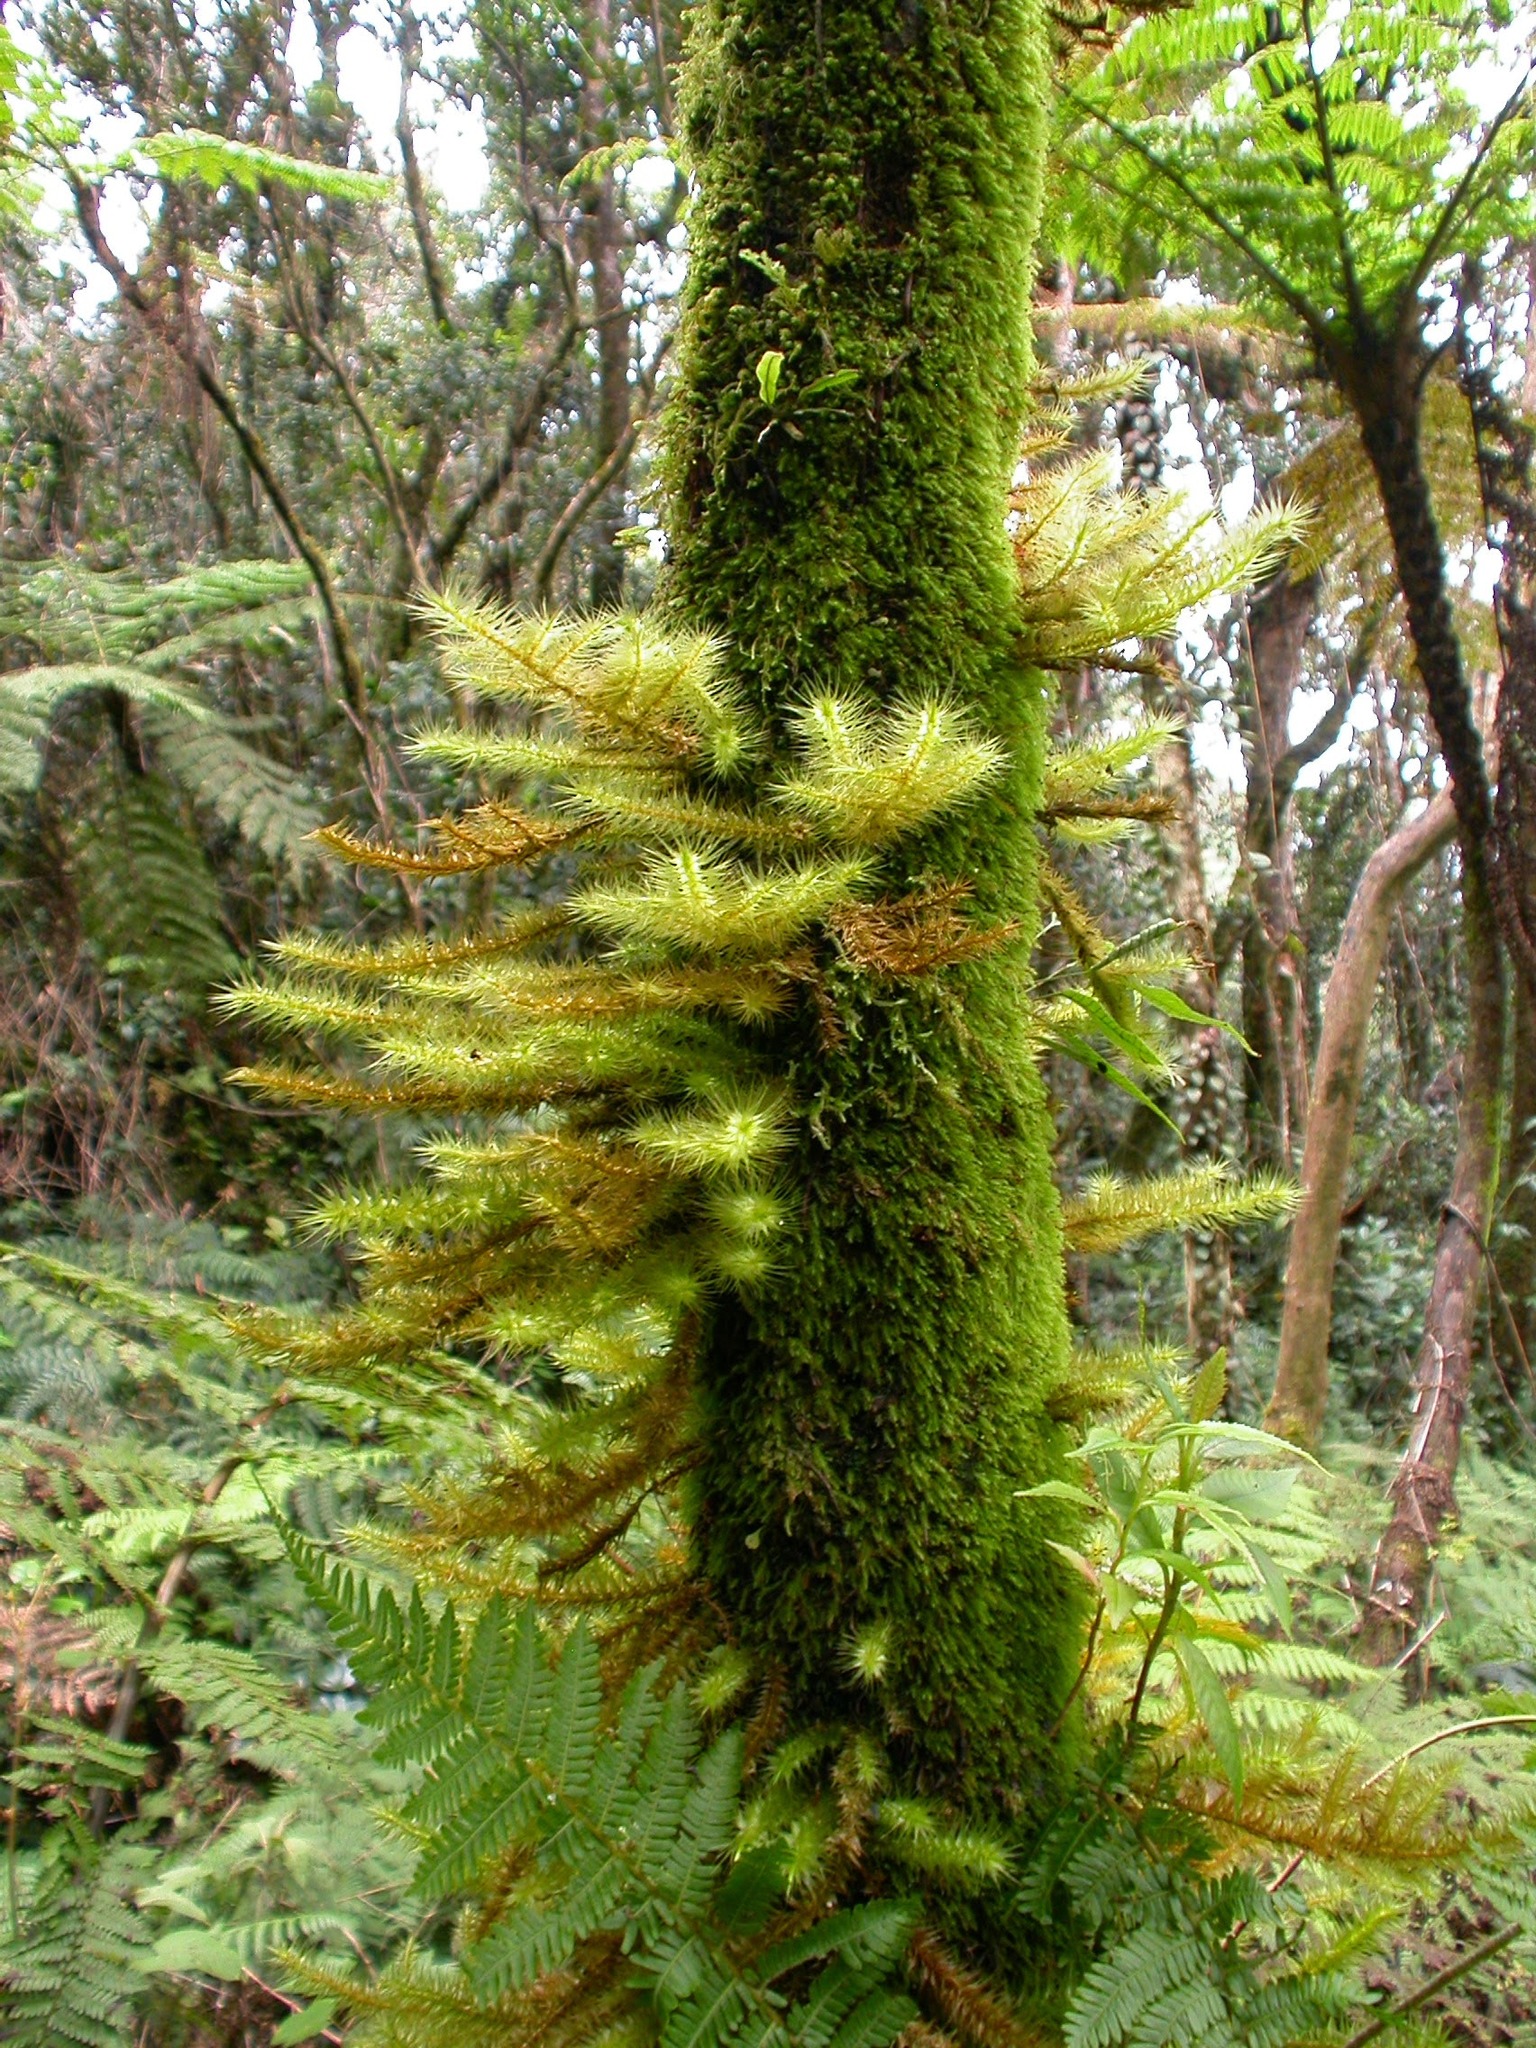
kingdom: Plantae
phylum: Bryophyta
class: Bryopsida
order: Hypnodendrales
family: Spiridentaceae
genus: Spiridens
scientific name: Spiridens reinwardtii
